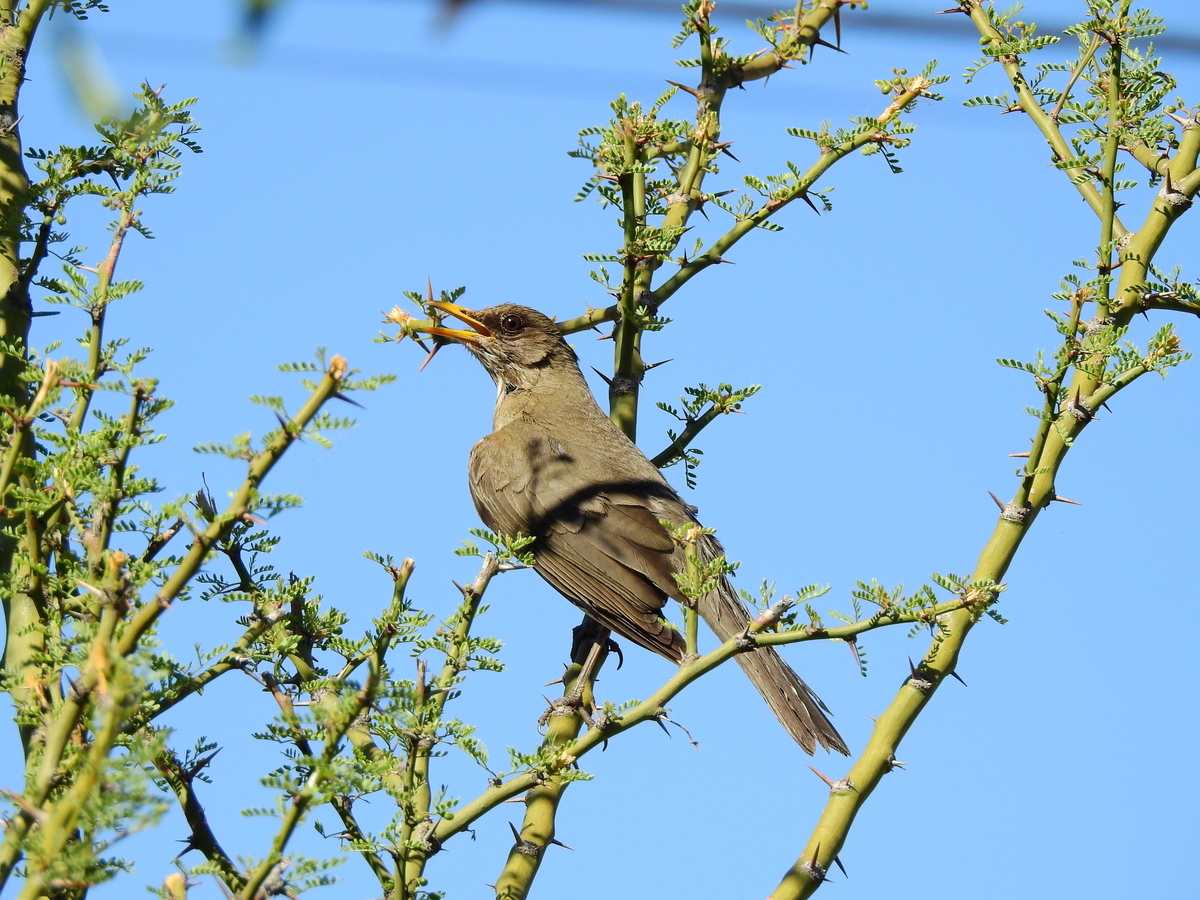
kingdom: Animalia
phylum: Chordata
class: Aves
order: Passeriformes
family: Turdidae
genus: Turdus
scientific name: Turdus amaurochalinus
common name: Creamy-bellied thrush
